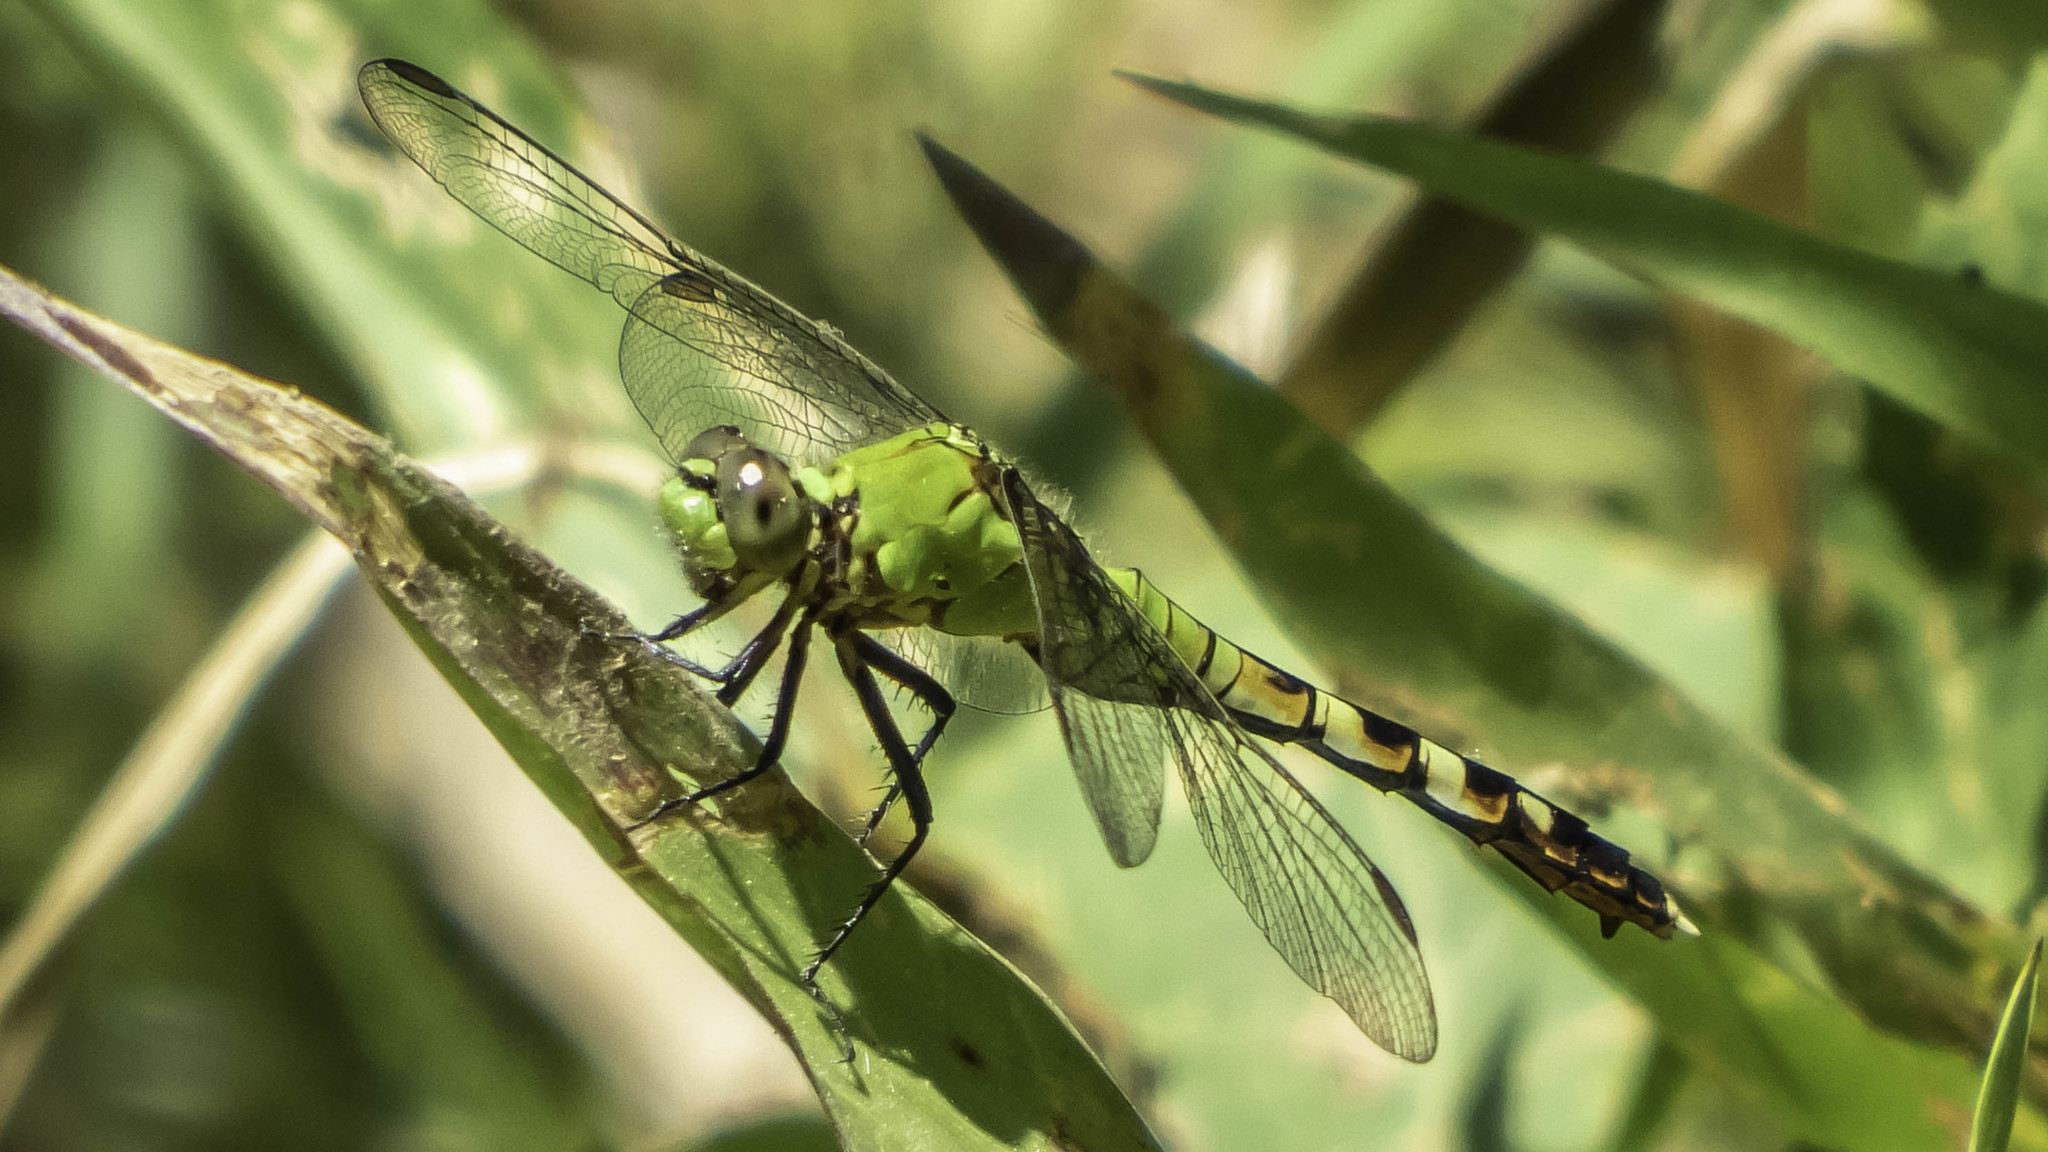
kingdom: Animalia
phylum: Arthropoda
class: Insecta
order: Odonata
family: Libellulidae
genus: Erythemis
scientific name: Erythemis simplicicollis
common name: Eastern pondhawk
